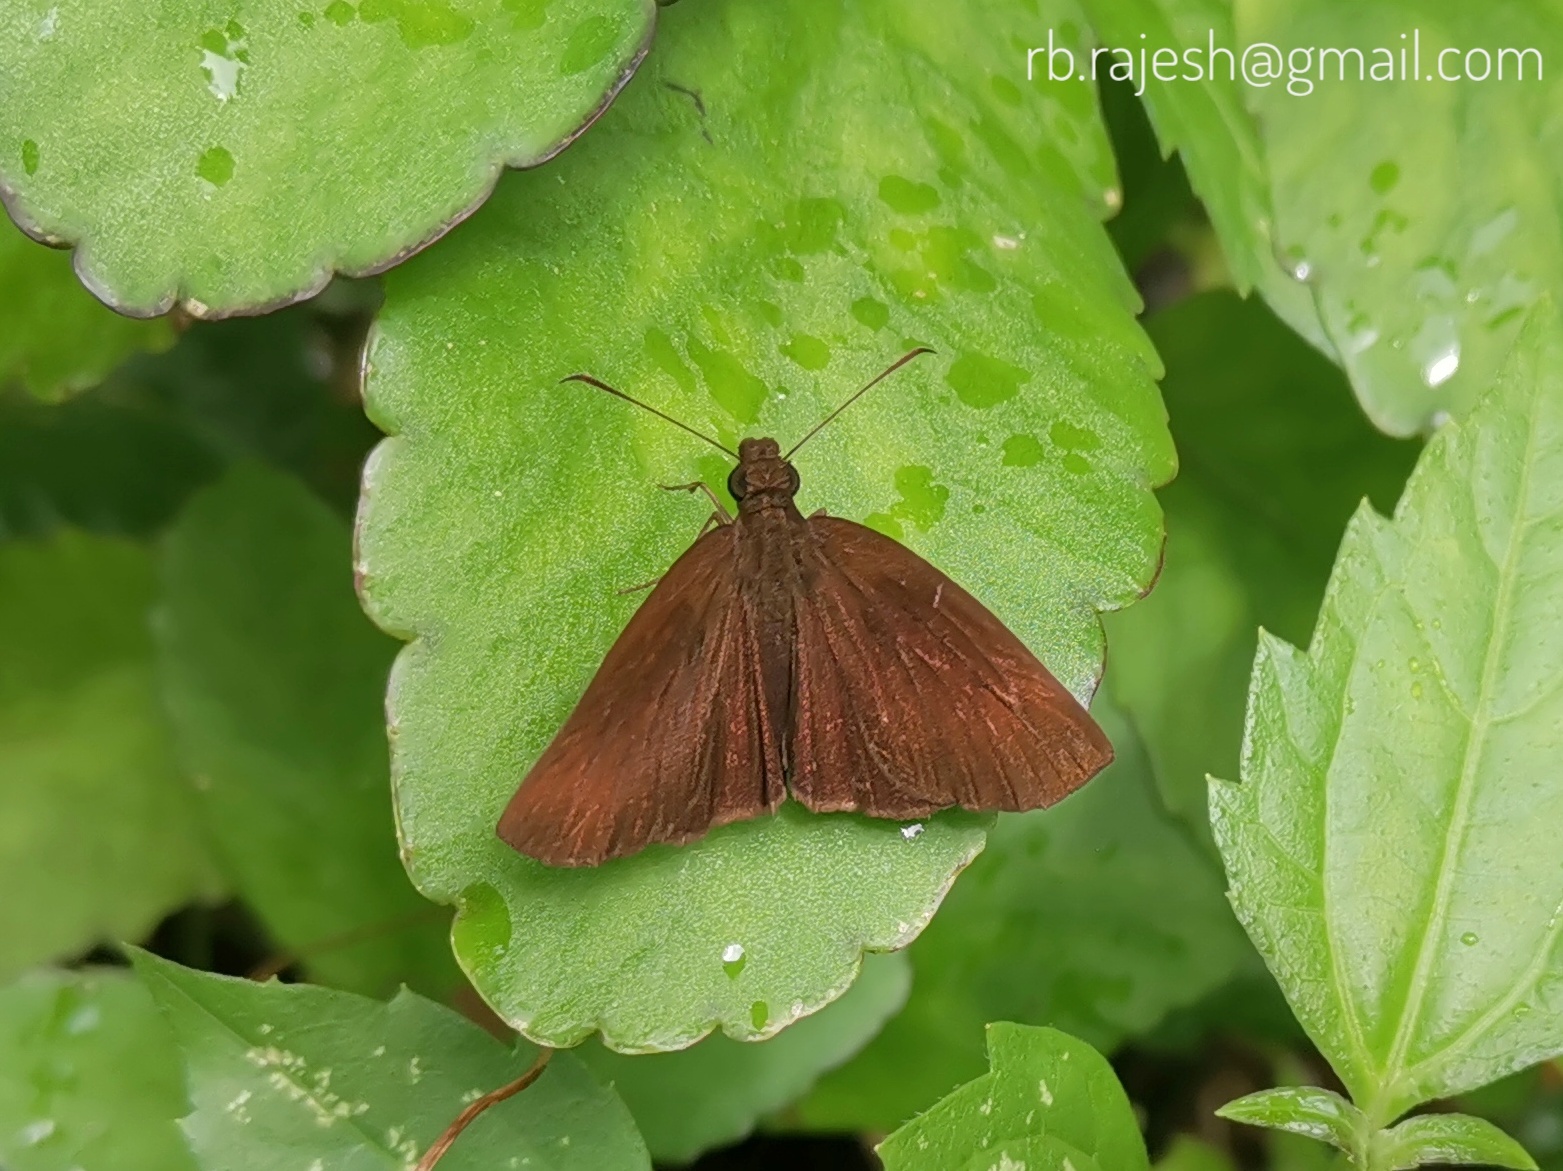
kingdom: Animalia
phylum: Arthropoda
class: Insecta
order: Lepidoptera
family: Hesperiidae
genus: Psolos
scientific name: Psolos fuligo
